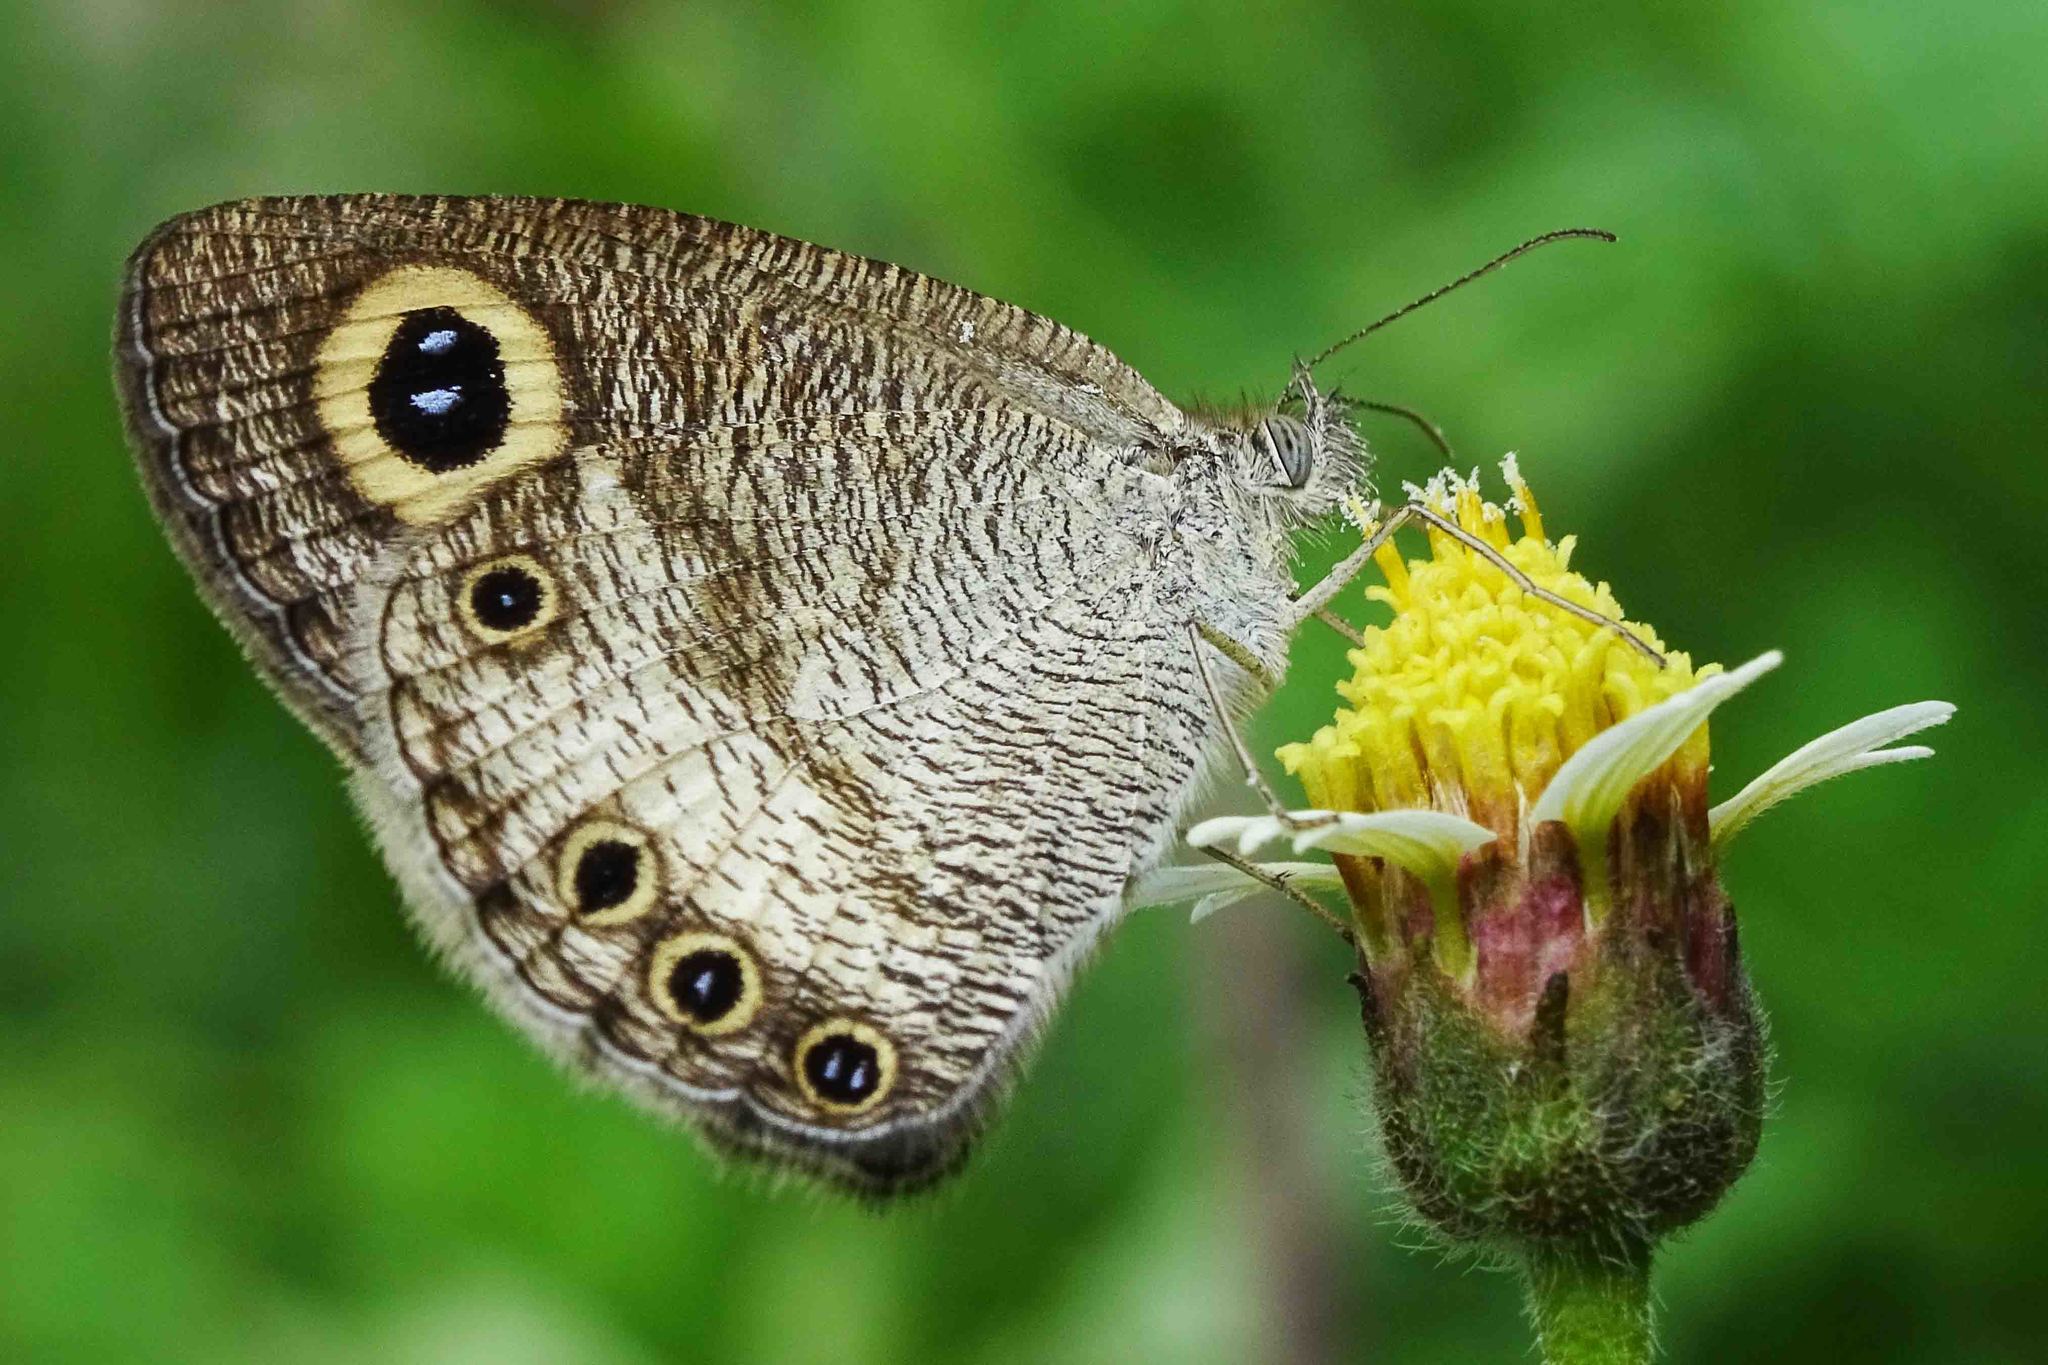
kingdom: Animalia
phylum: Arthropoda
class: Insecta
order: Lepidoptera
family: Nymphalidae
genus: Ypthima
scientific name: Ypthima ceylonica
